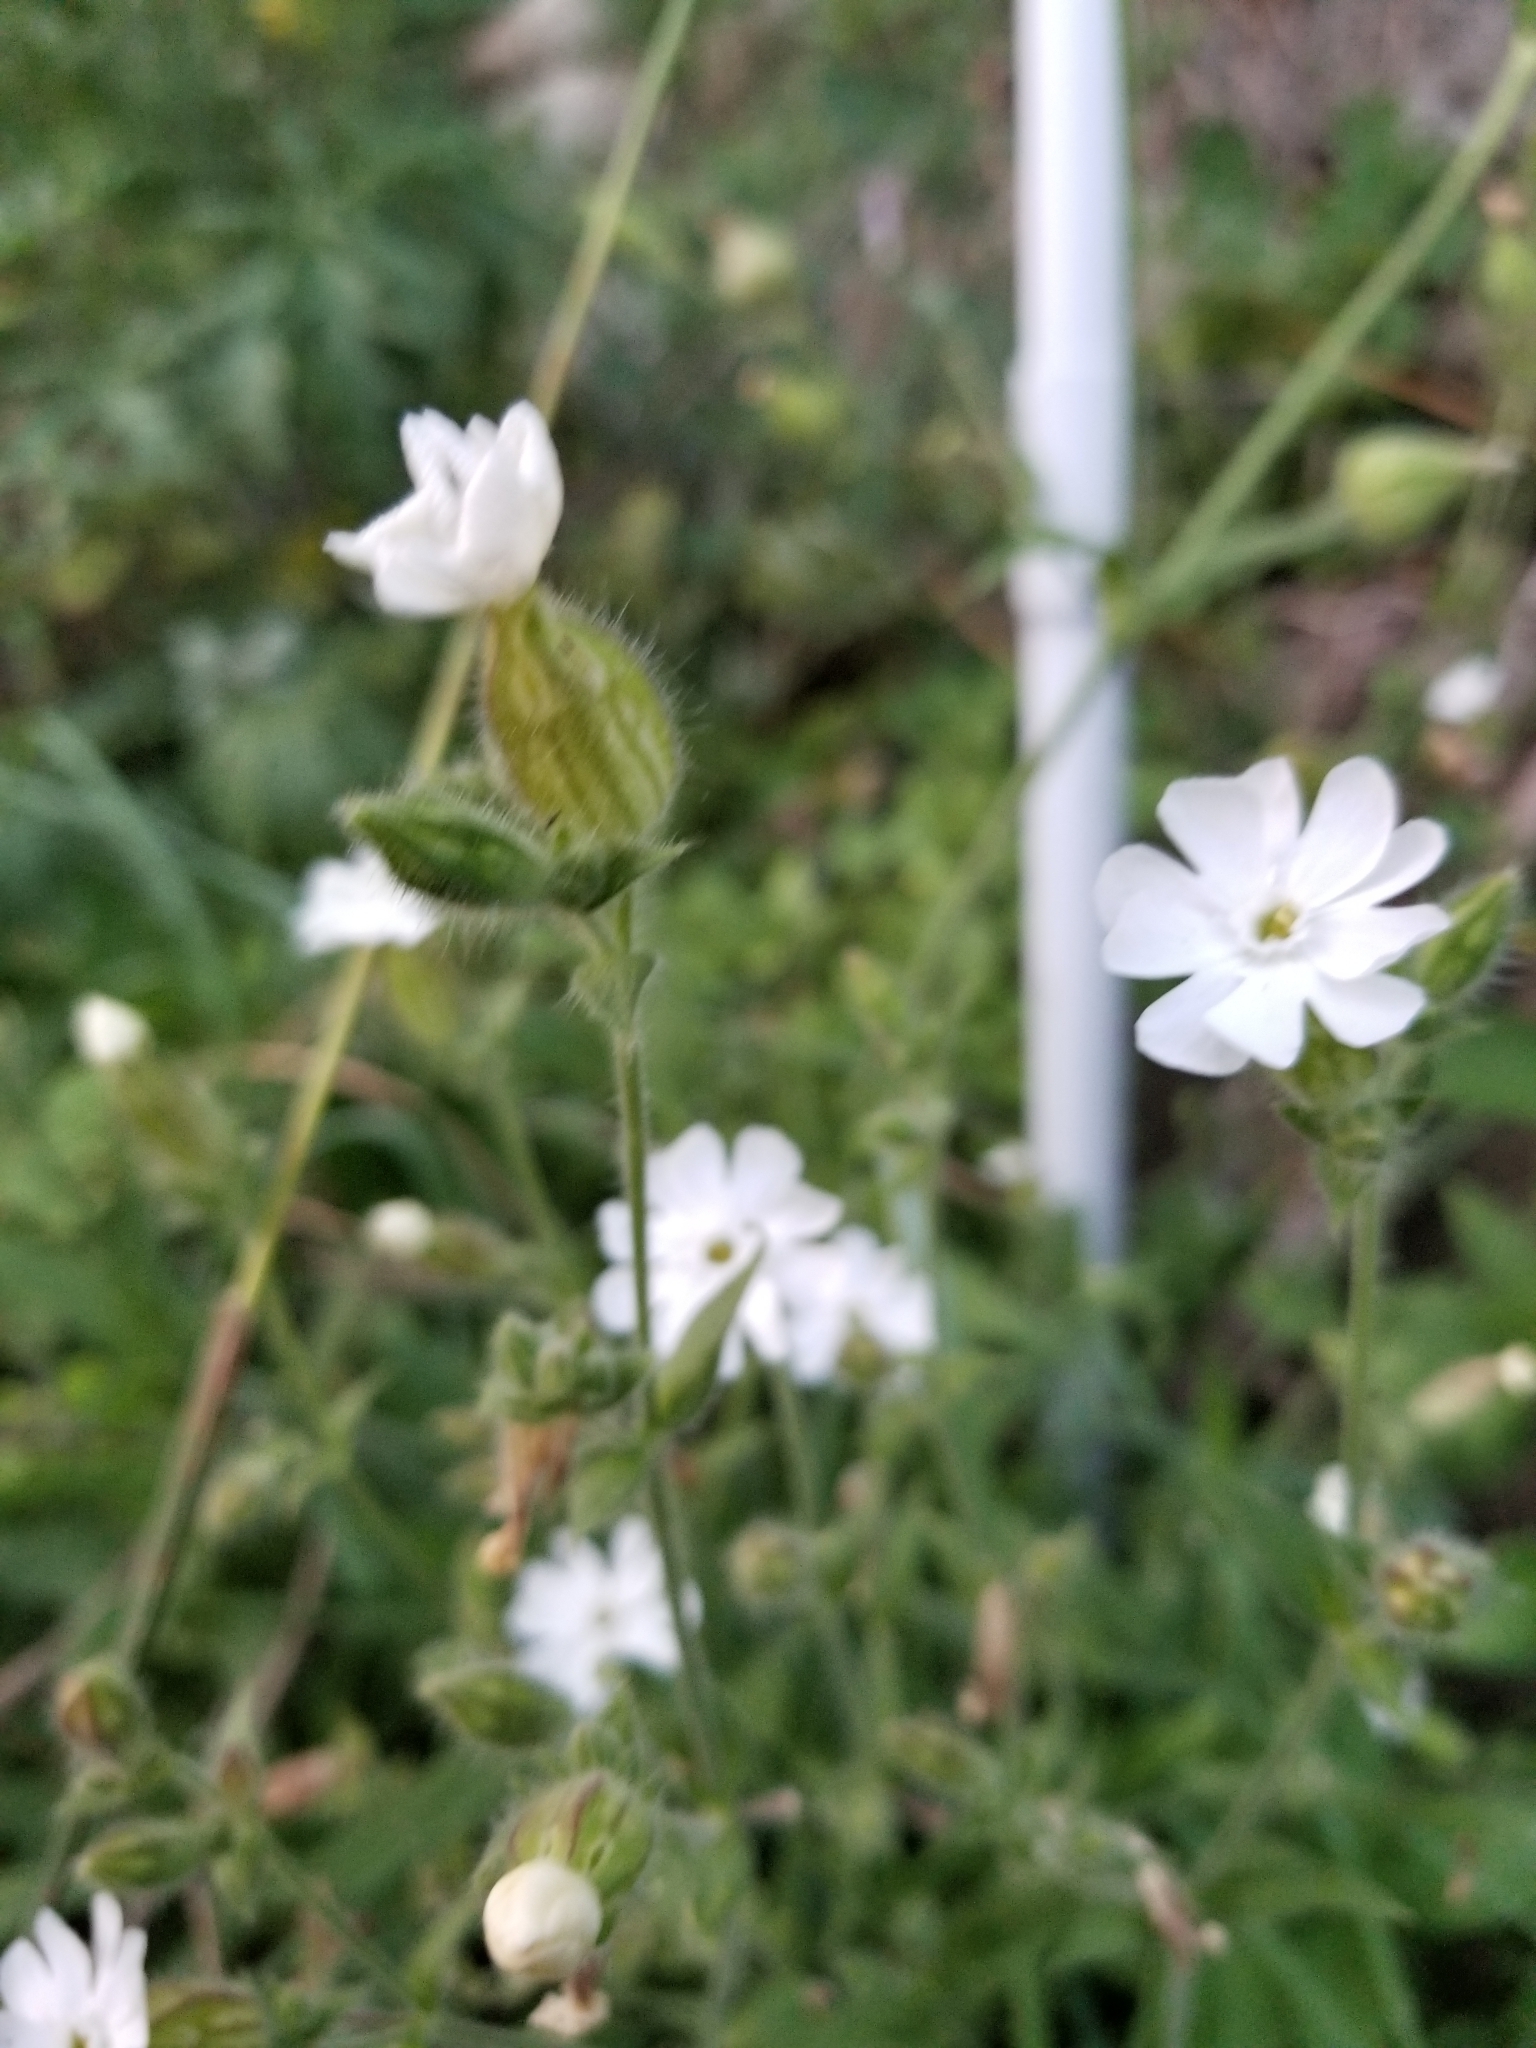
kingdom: Plantae
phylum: Tracheophyta
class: Magnoliopsida
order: Caryophyllales
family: Caryophyllaceae
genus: Silene
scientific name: Silene latifolia
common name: White campion
